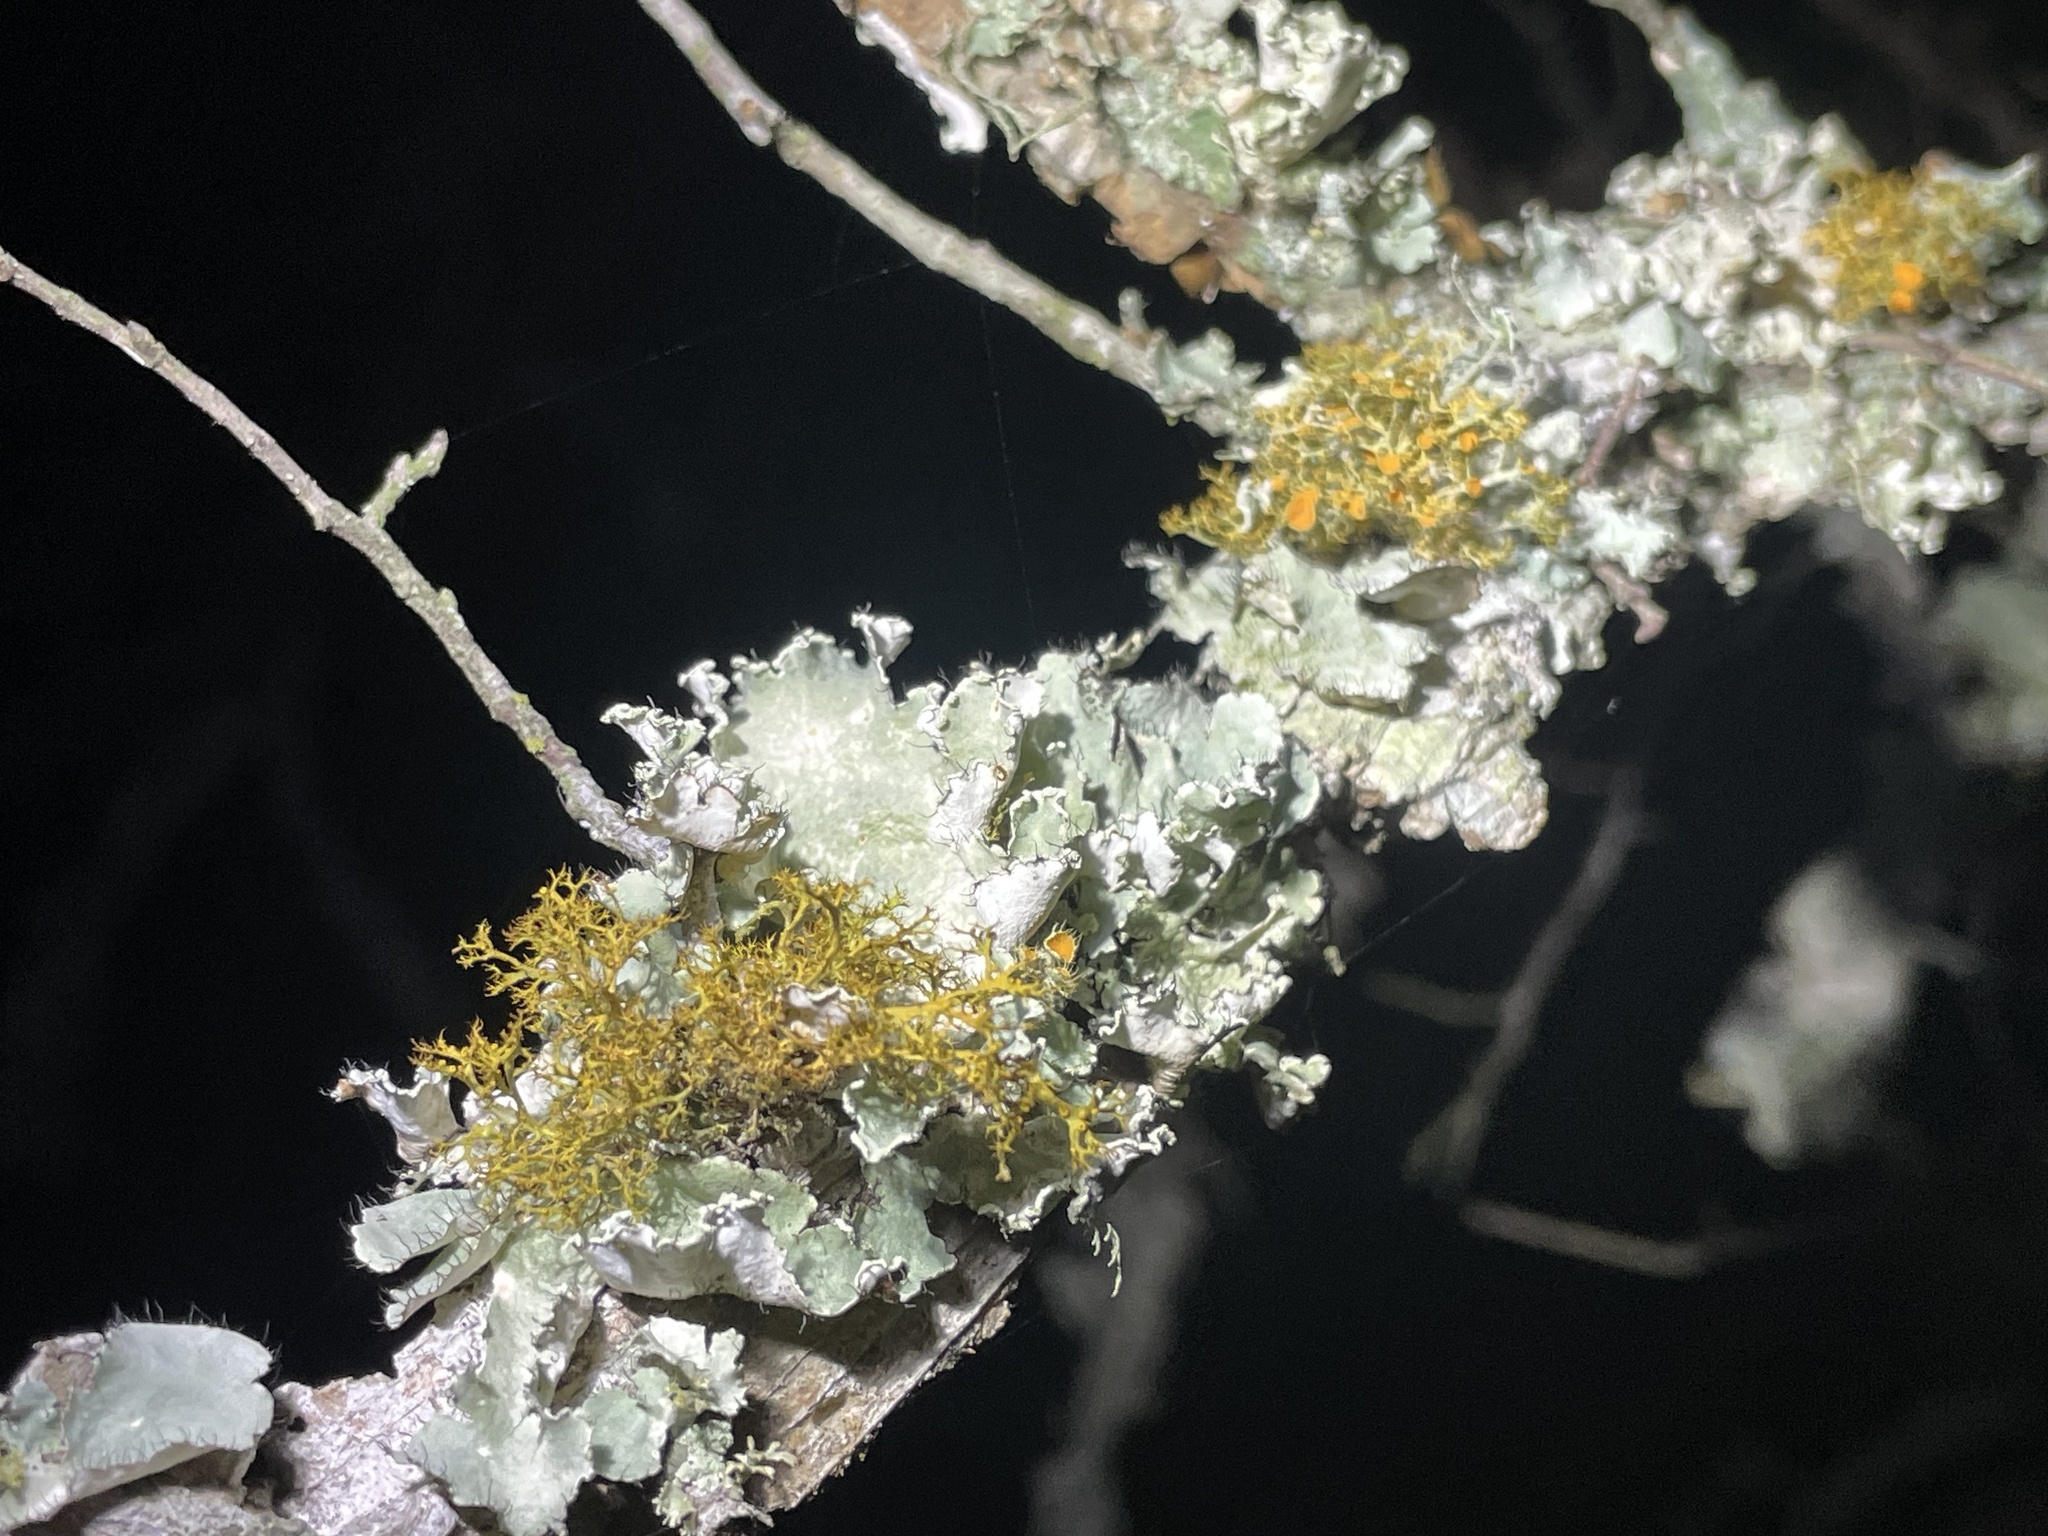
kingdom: Fungi
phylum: Ascomycota
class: Lecanoromycetes
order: Teloschistales
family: Teloschistaceae
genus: Teloschistes
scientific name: Teloschistes exilis
